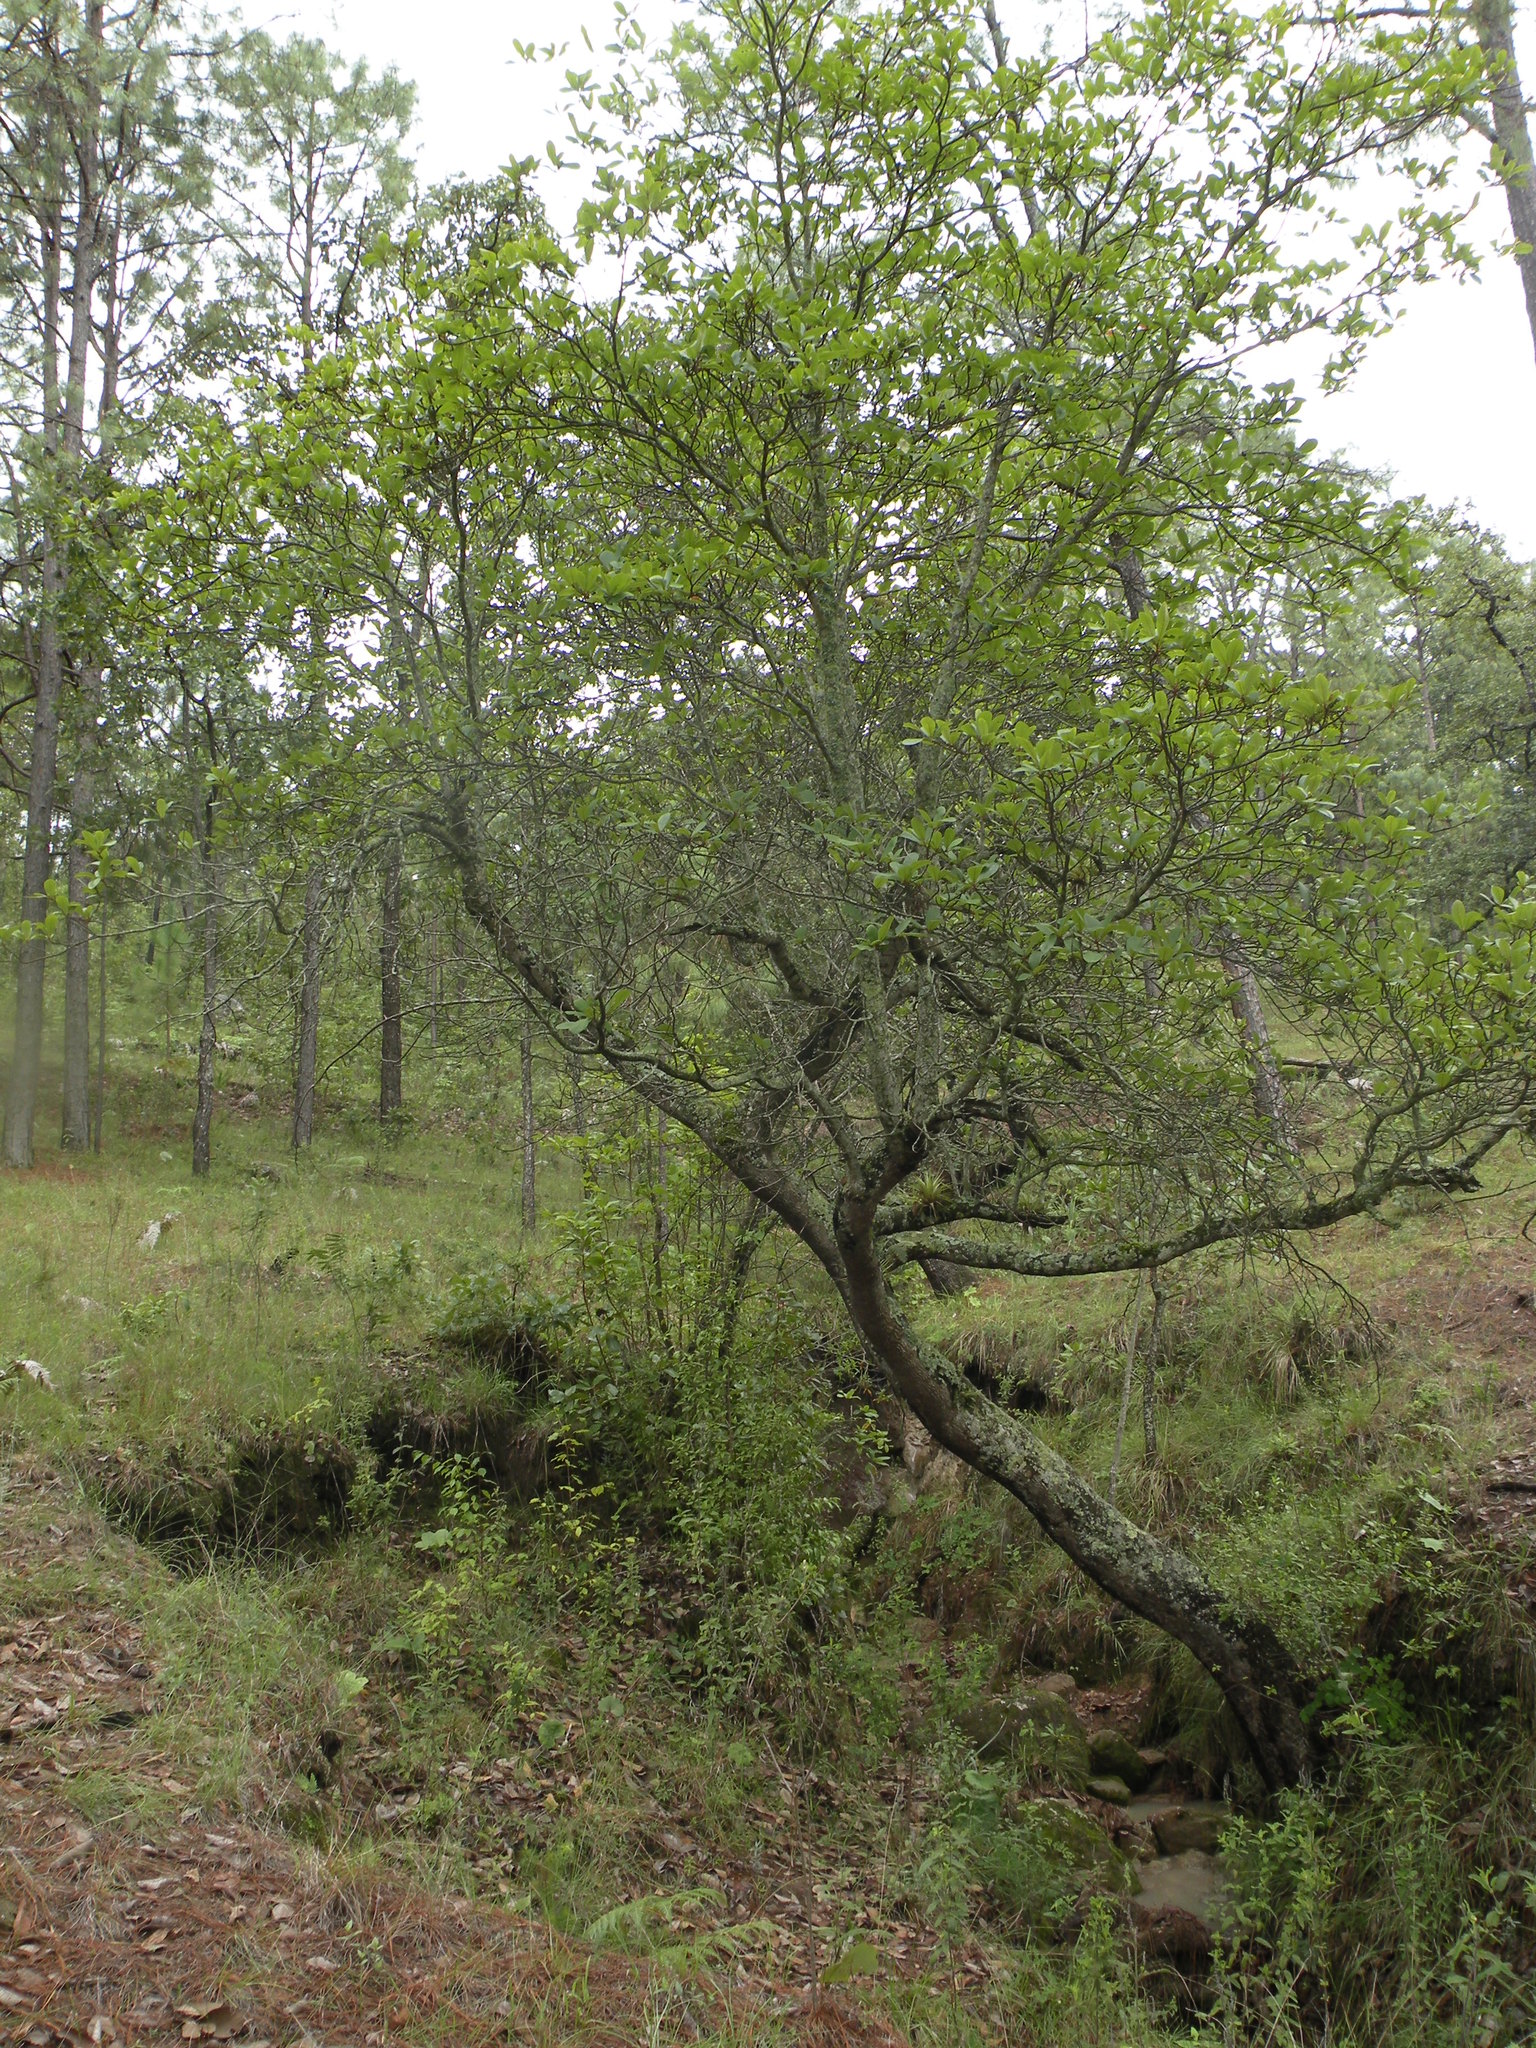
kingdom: Plantae
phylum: Tracheophyta
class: Magnoliopsida
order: Ericales
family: Ericaceae
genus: Arbutus
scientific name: Arbutus madrensis
